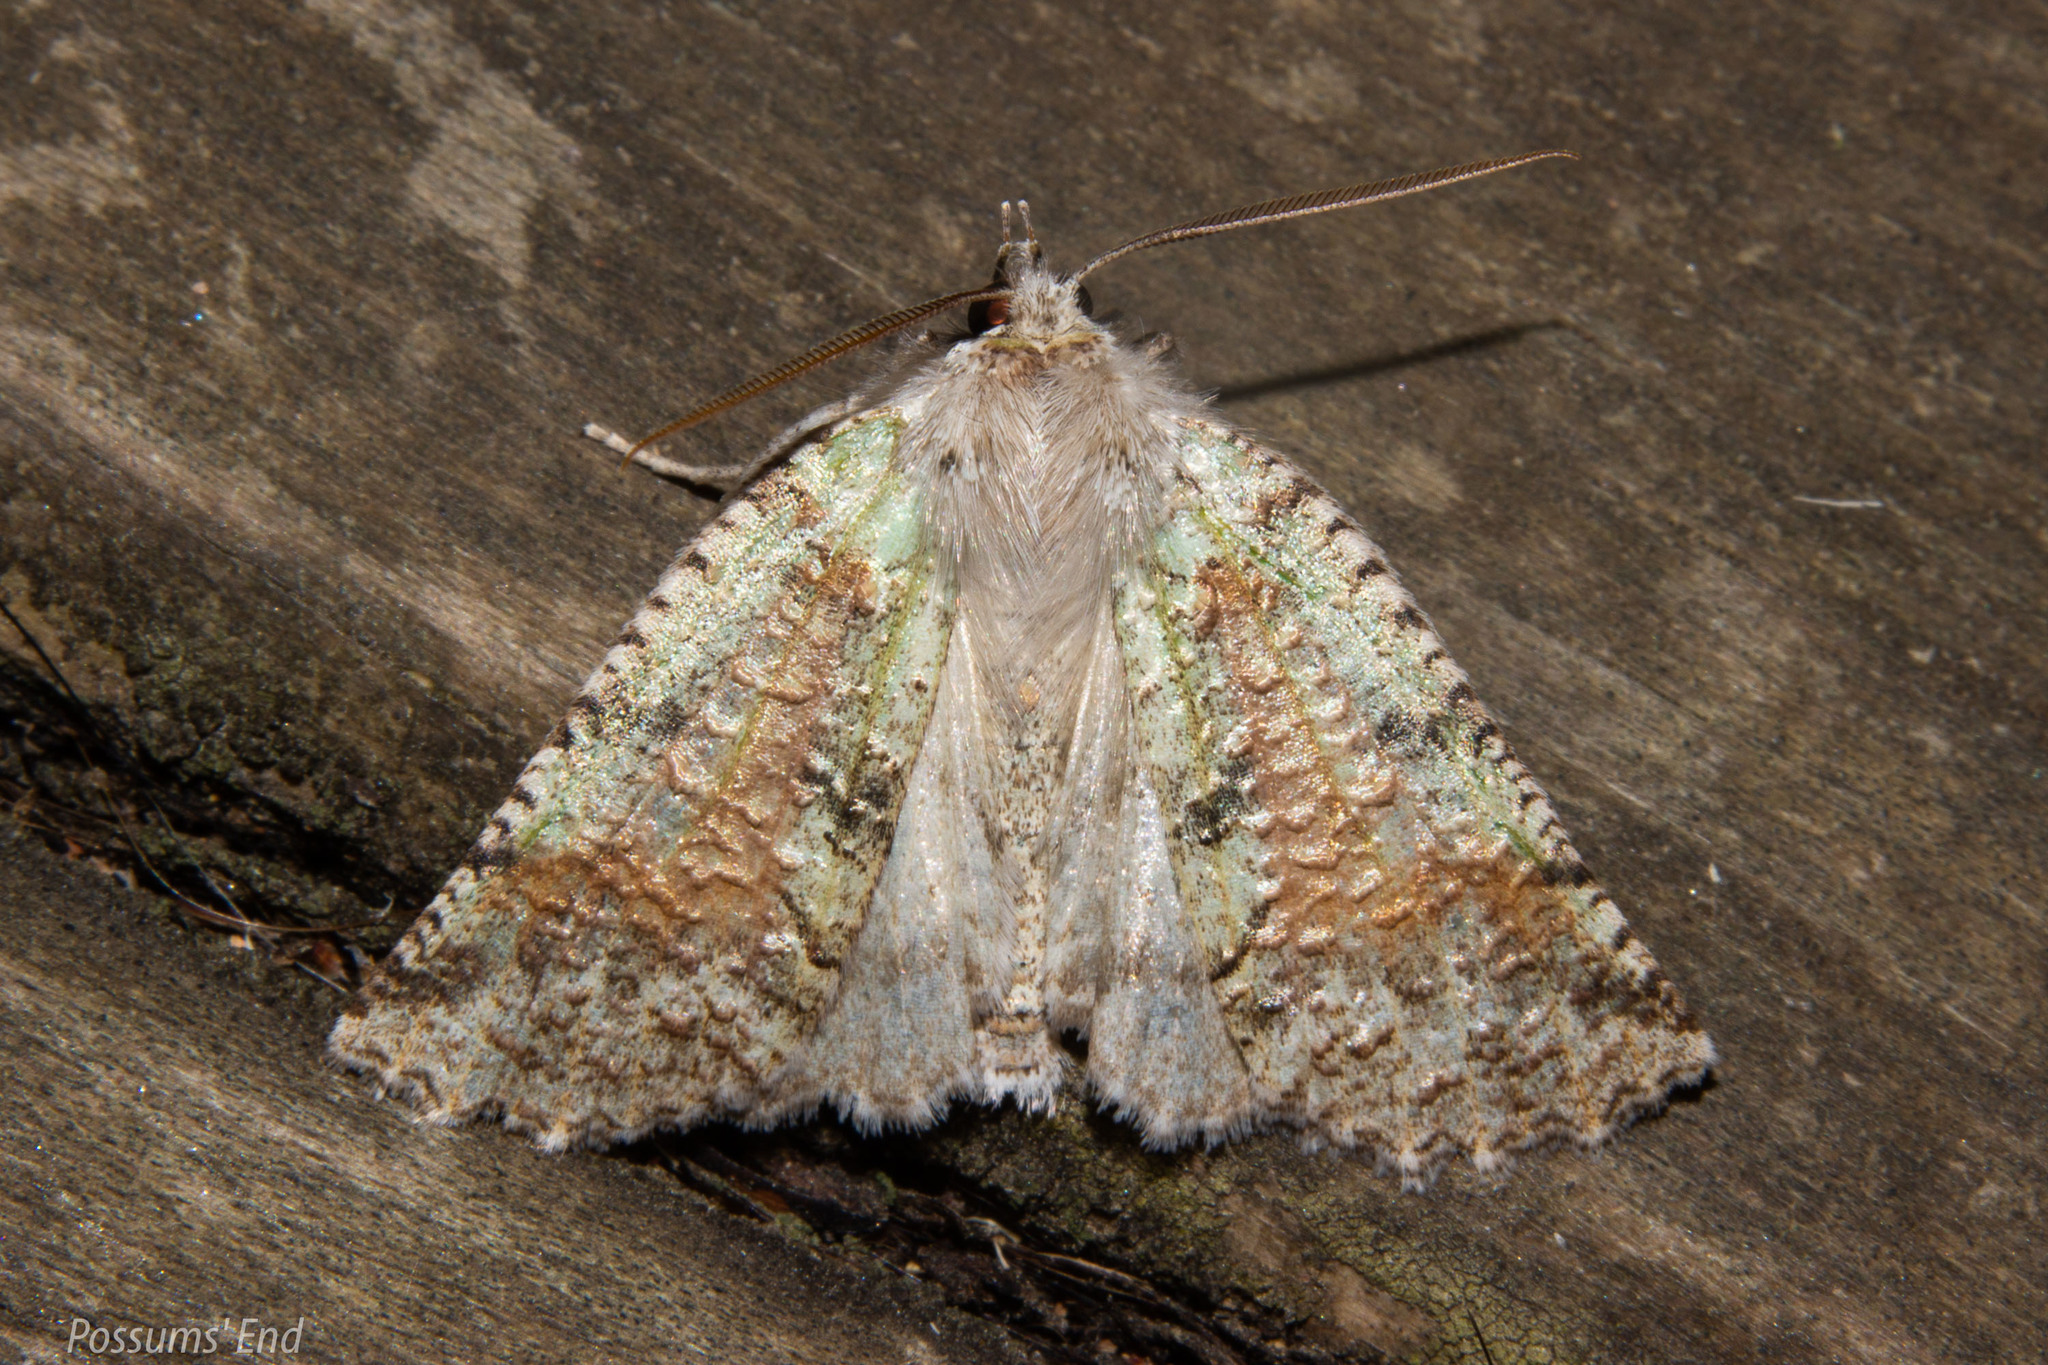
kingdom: Animalia
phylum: Arthropoda
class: Insecta
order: Lepidoptera
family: Geometridae
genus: Declana
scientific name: Declana floccosa
